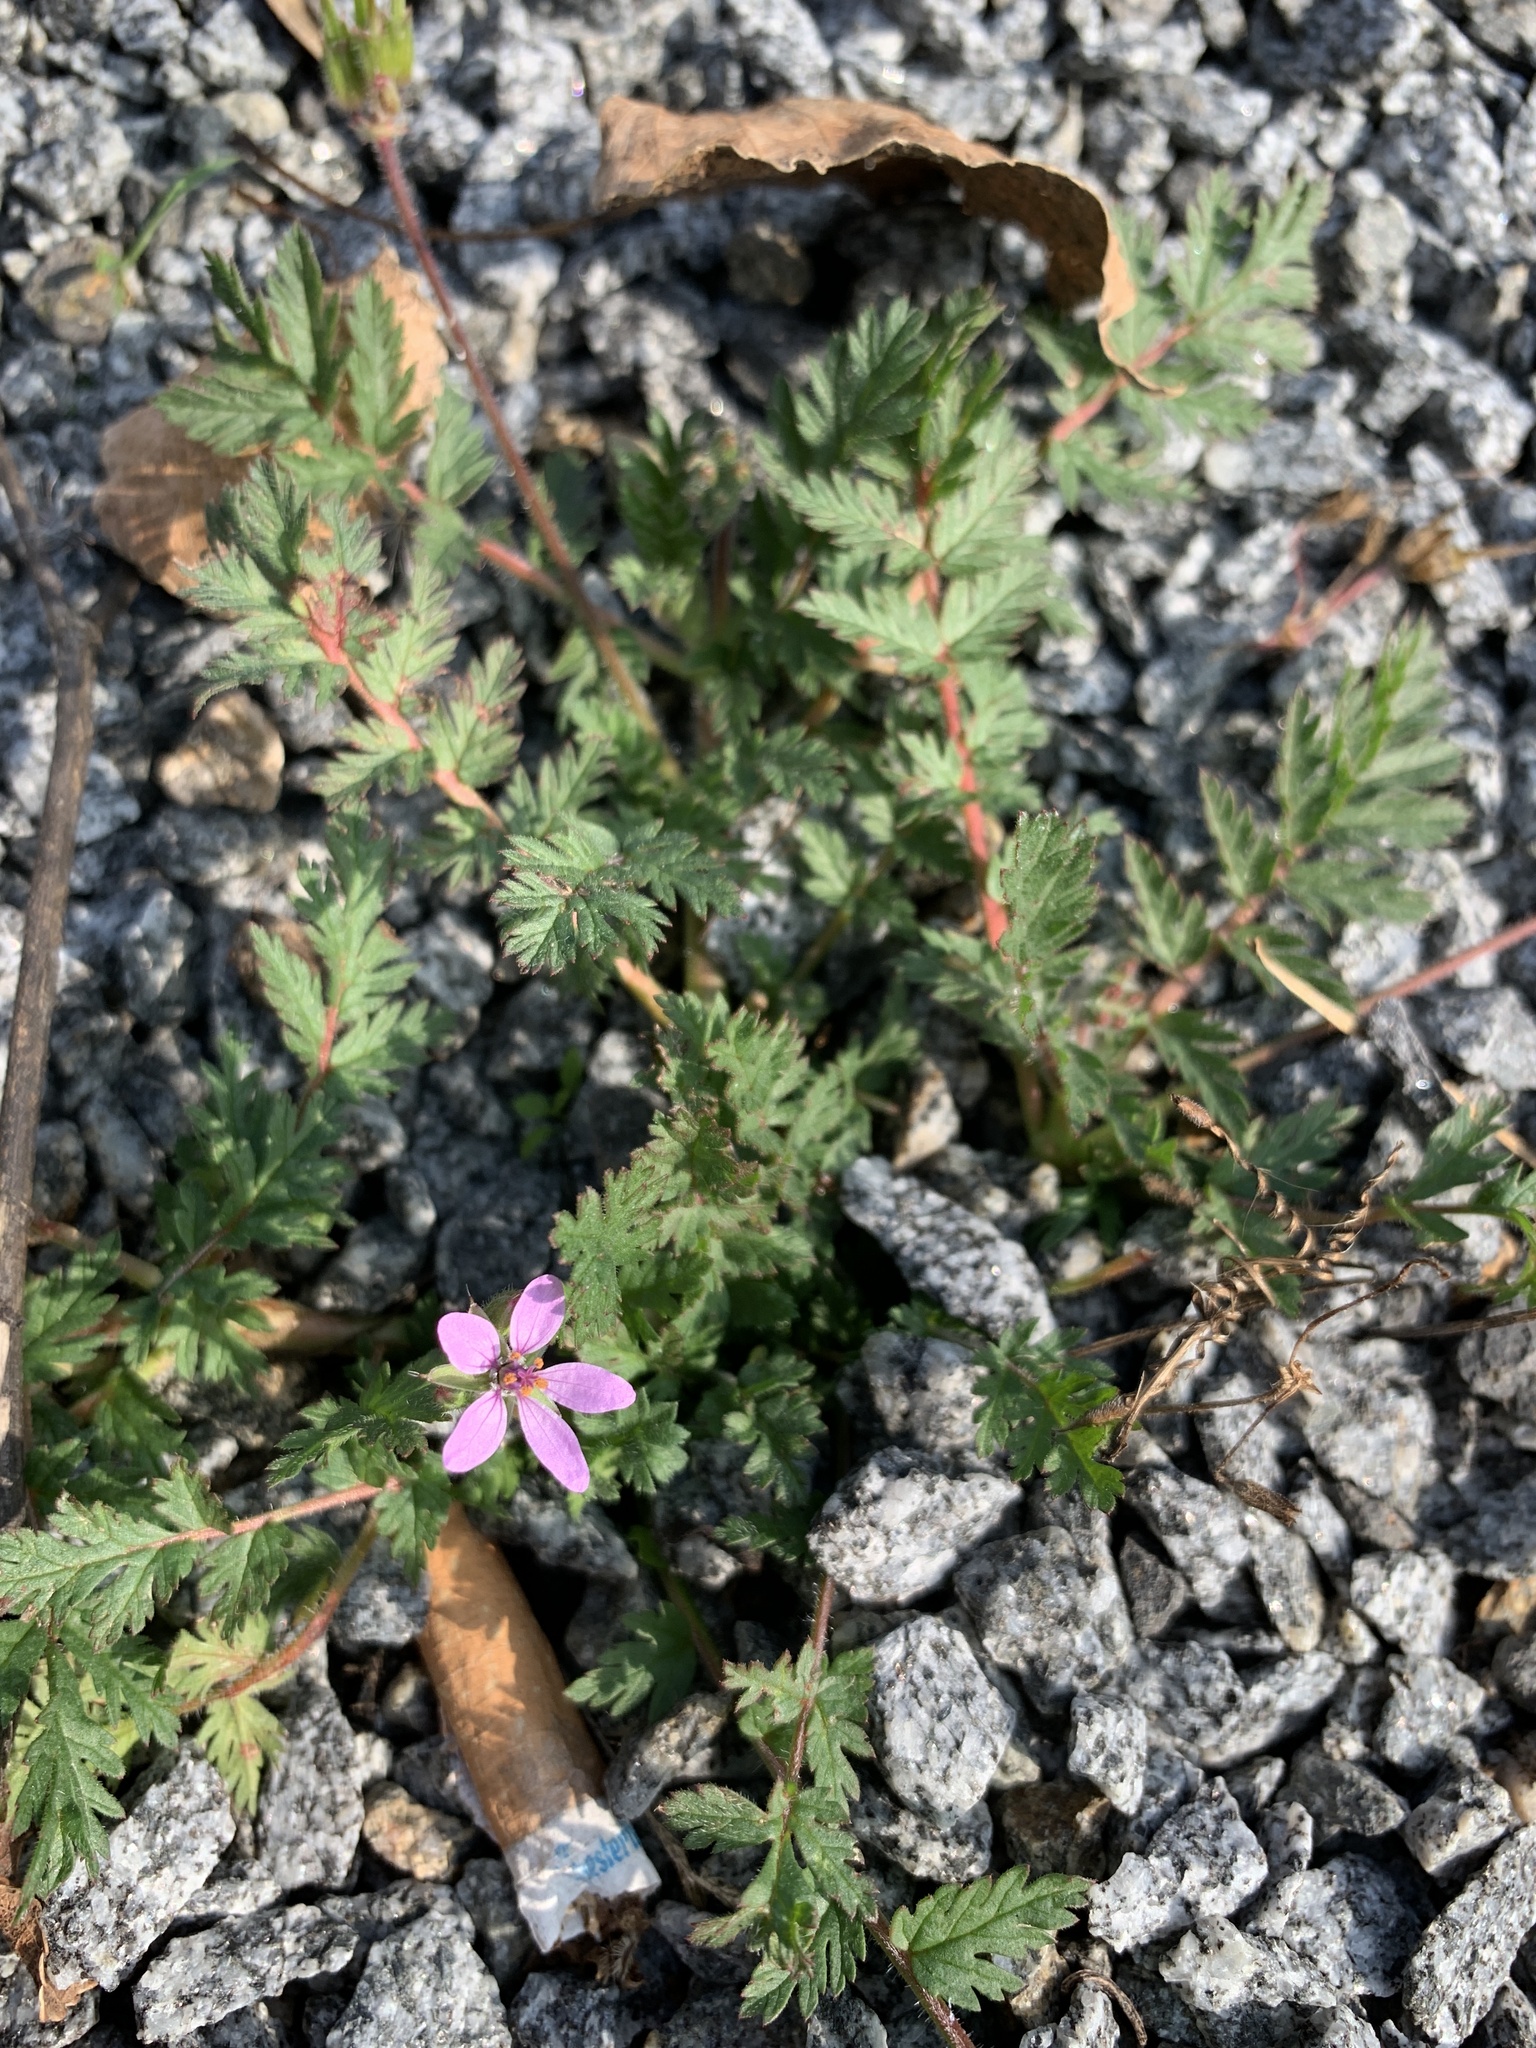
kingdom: Plantae
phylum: Tracheophyta
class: Magnoliopsida
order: Geraniales
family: Geraniaceae
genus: Erodium
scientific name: Erodium cicutarium
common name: Common stork's-bill
